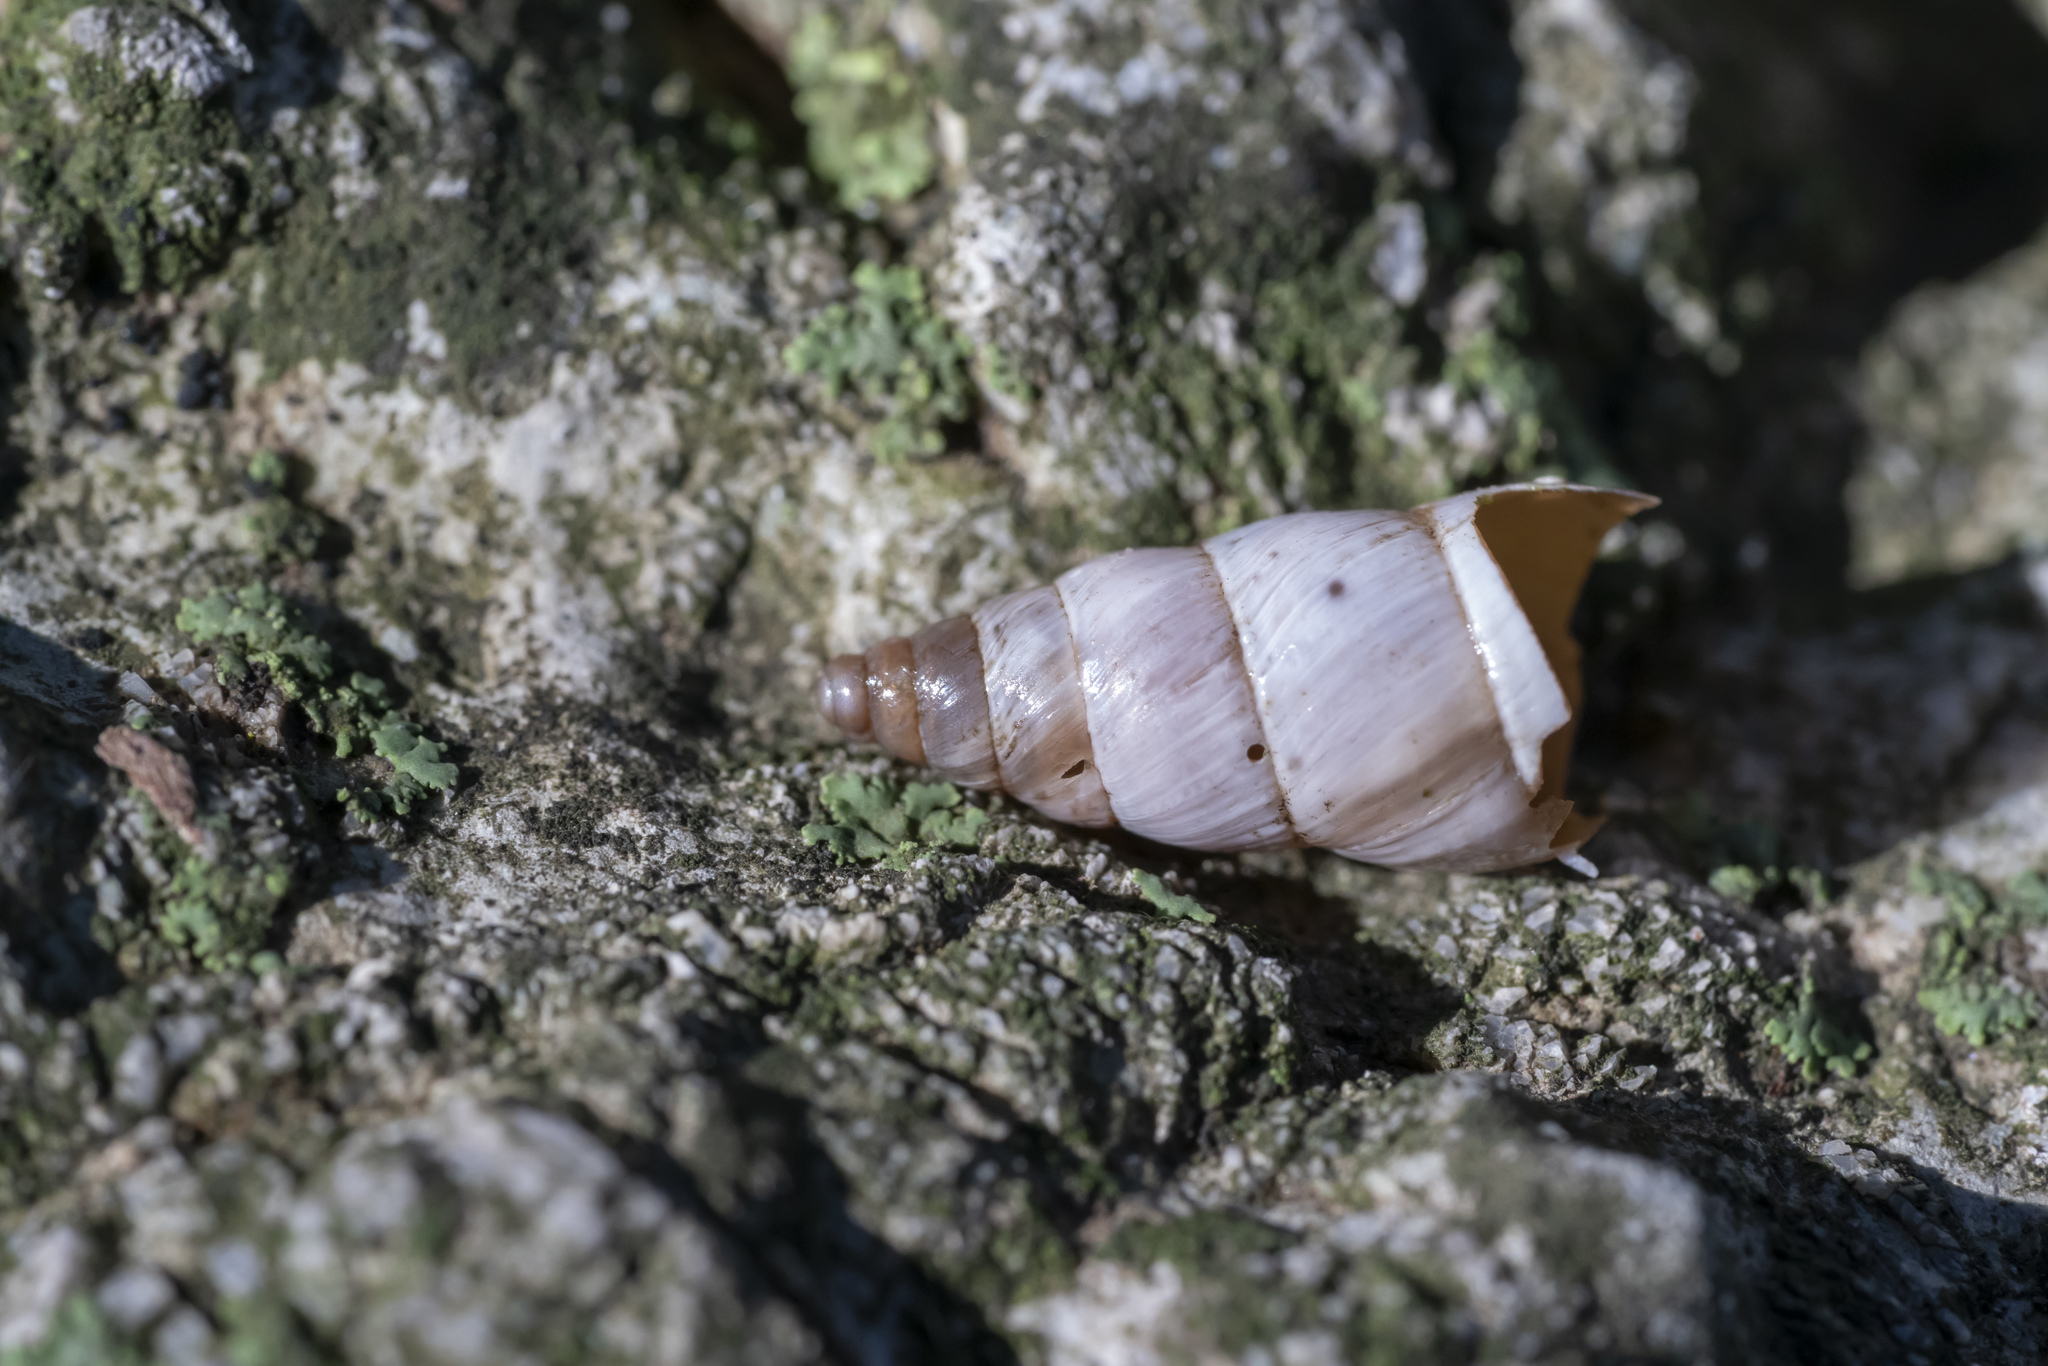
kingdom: Animalia
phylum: Mollusca
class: Gastropoda
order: Stylommatophora
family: Enidae
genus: Rhabdoena
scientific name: Rhabdoena cosensis
